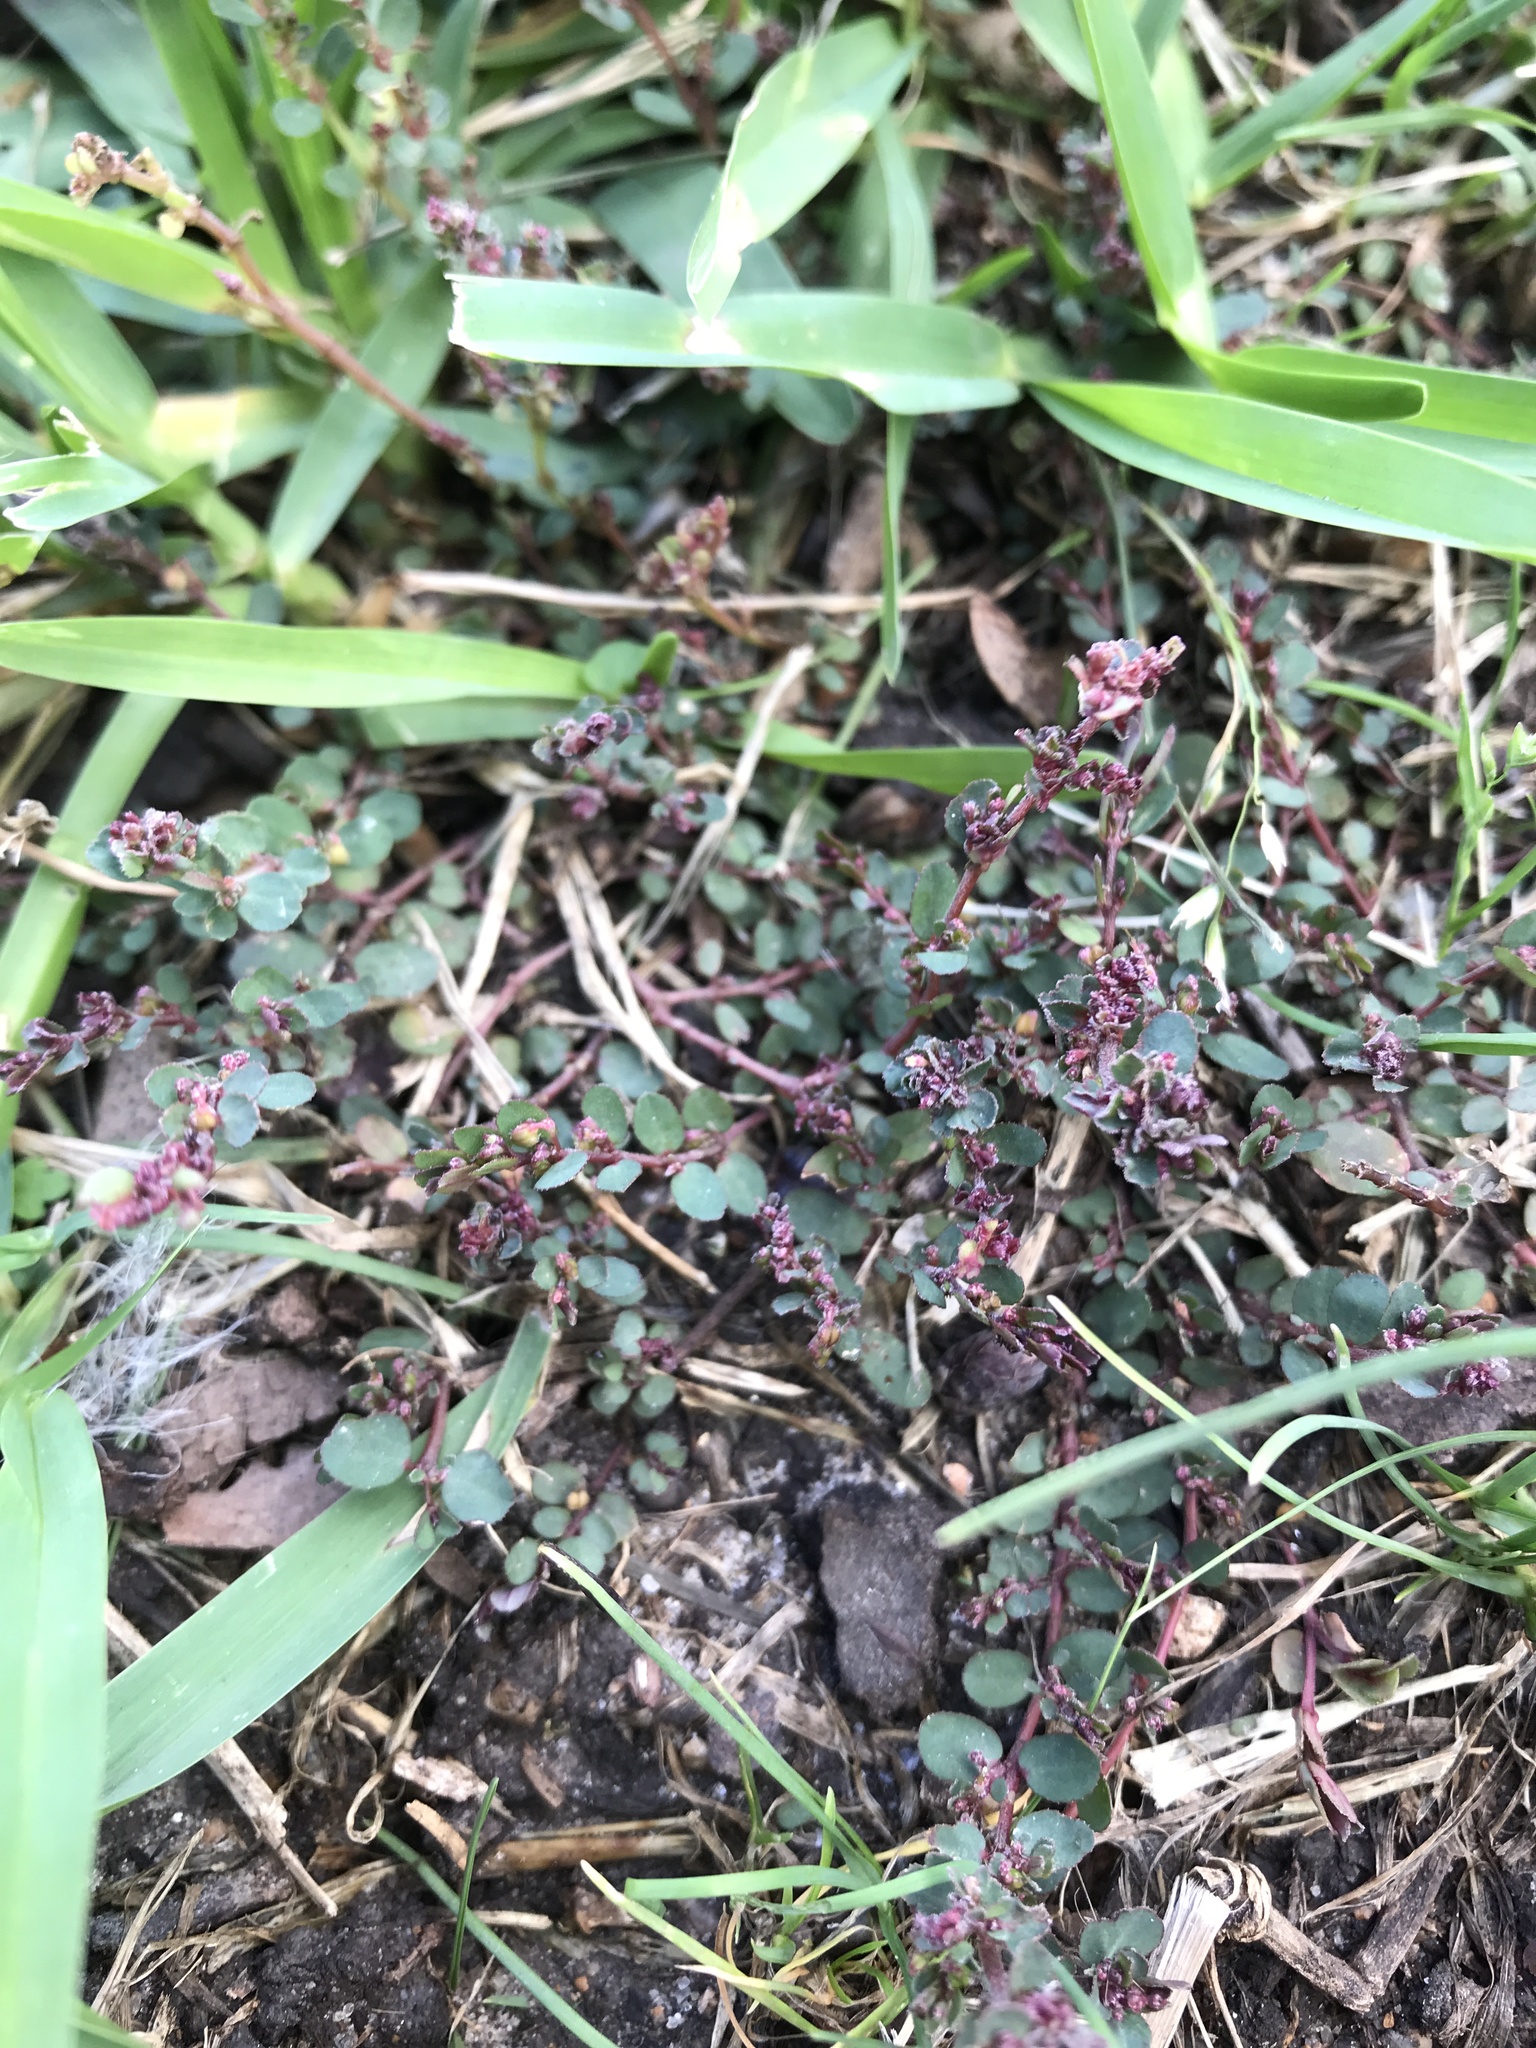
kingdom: Plantae
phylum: Tracheophyta
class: Magnoliopsida
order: Malpighiales
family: Euphorbiaceae
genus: Euphorbia
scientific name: Euphorbia prostrata
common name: Prostrate sandmat
